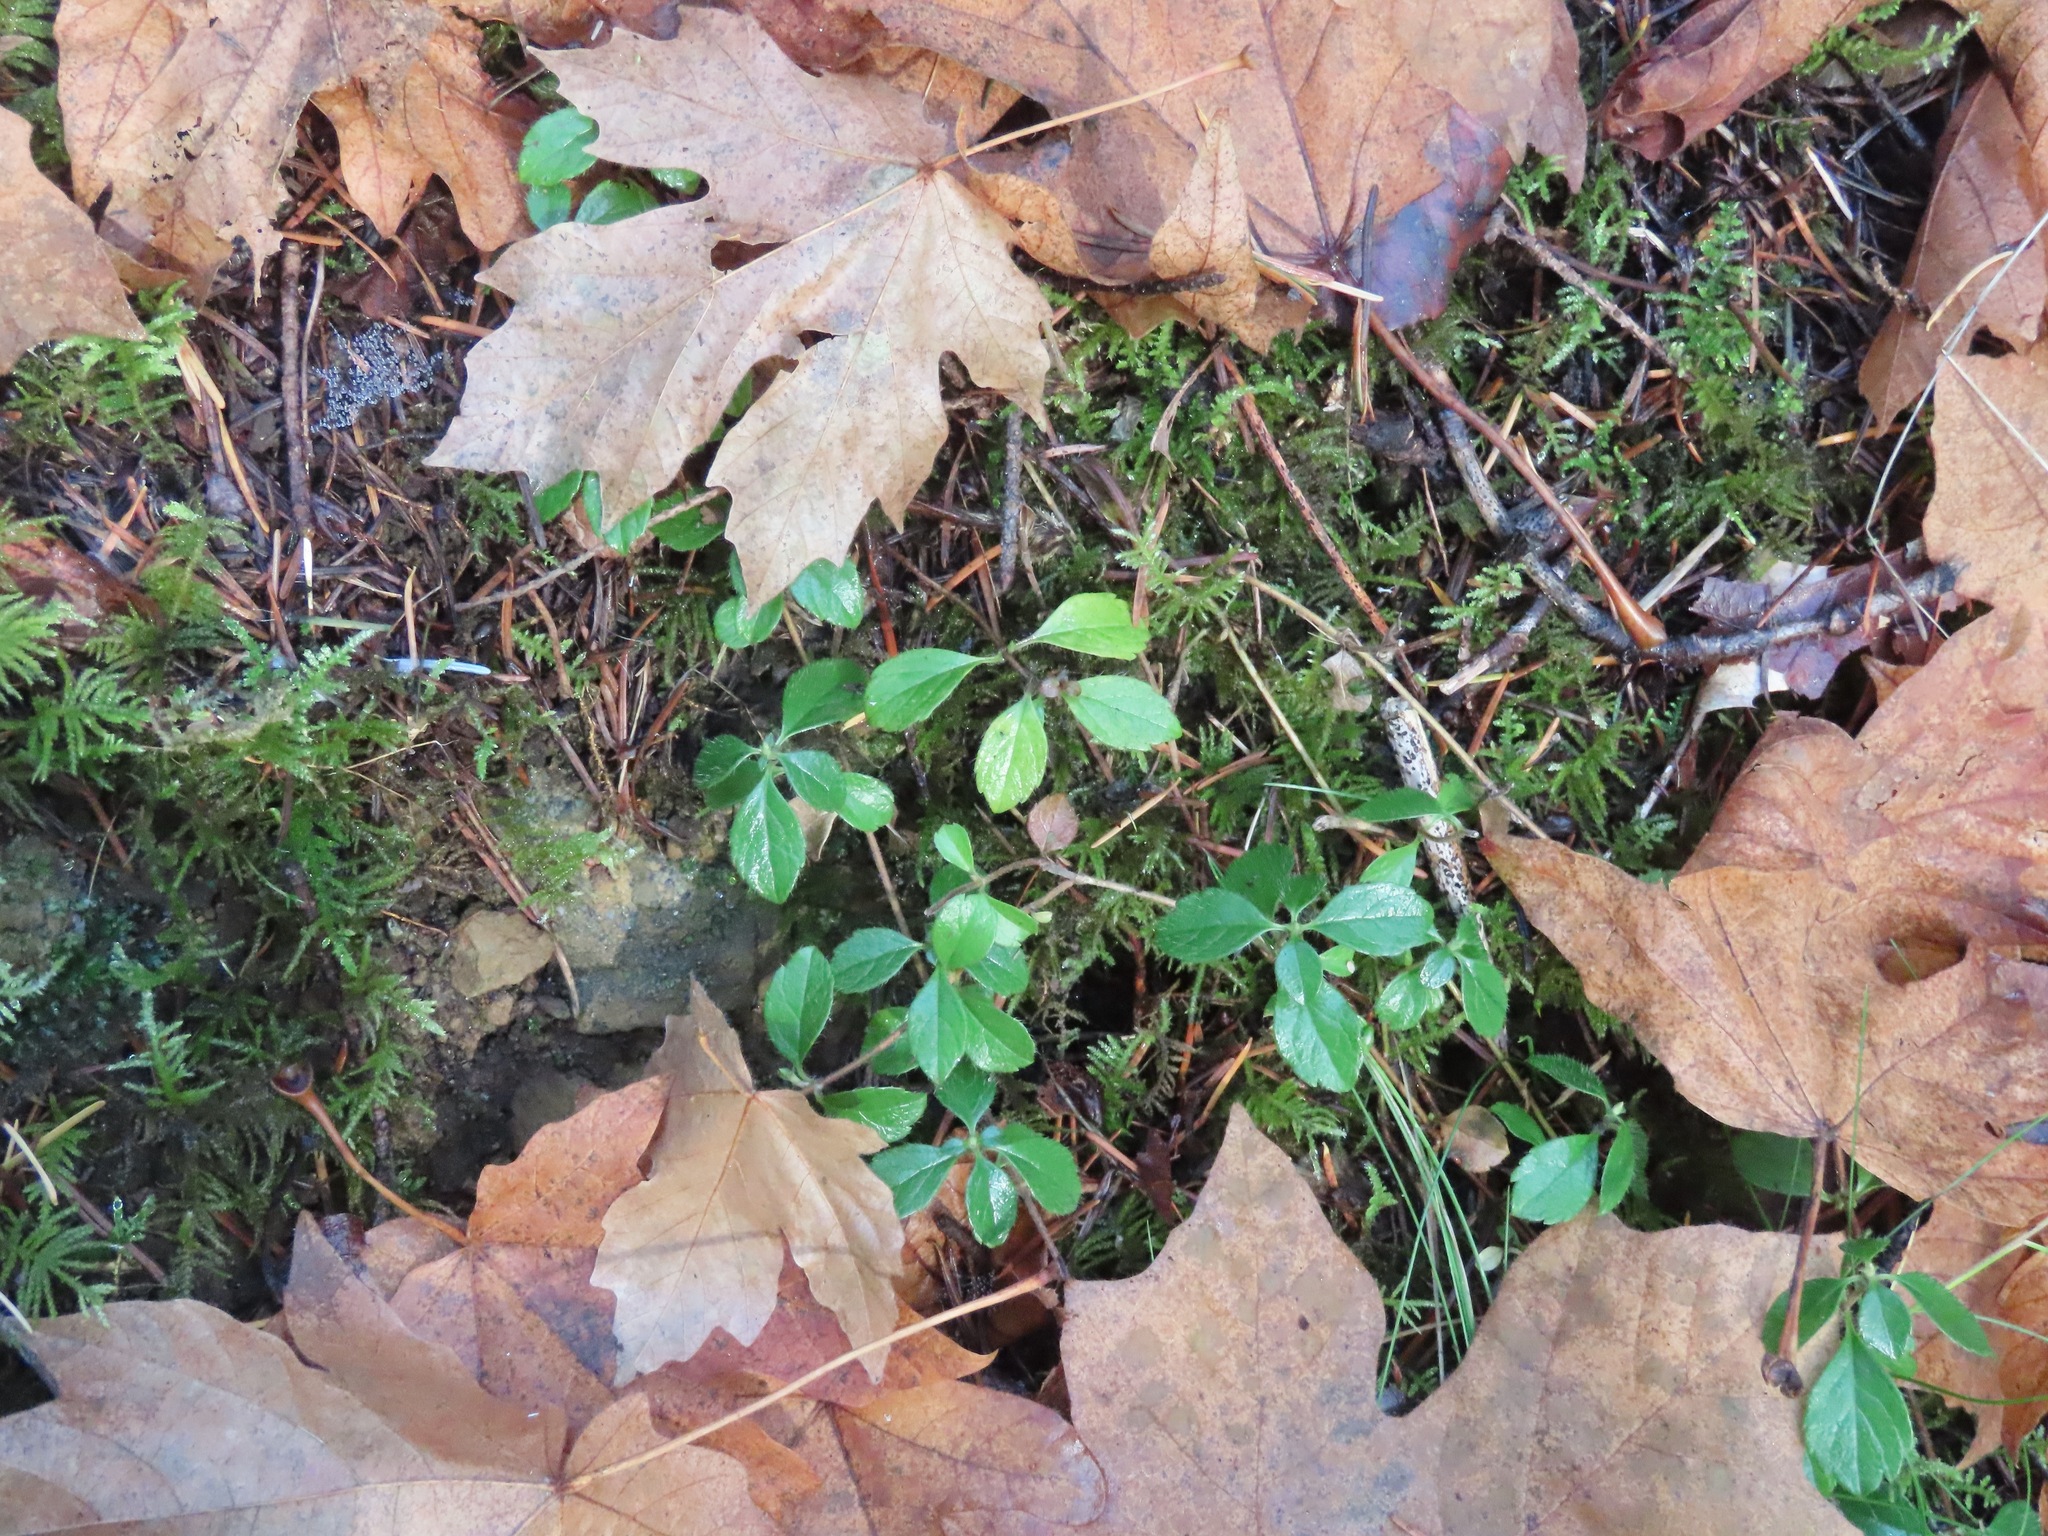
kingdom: Plantae
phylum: Tracheophyta
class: Magnoliopsida
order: Dipsacales
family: Caprifoliaceae
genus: Linnaea
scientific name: Linnaea borealis
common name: Twinflower
